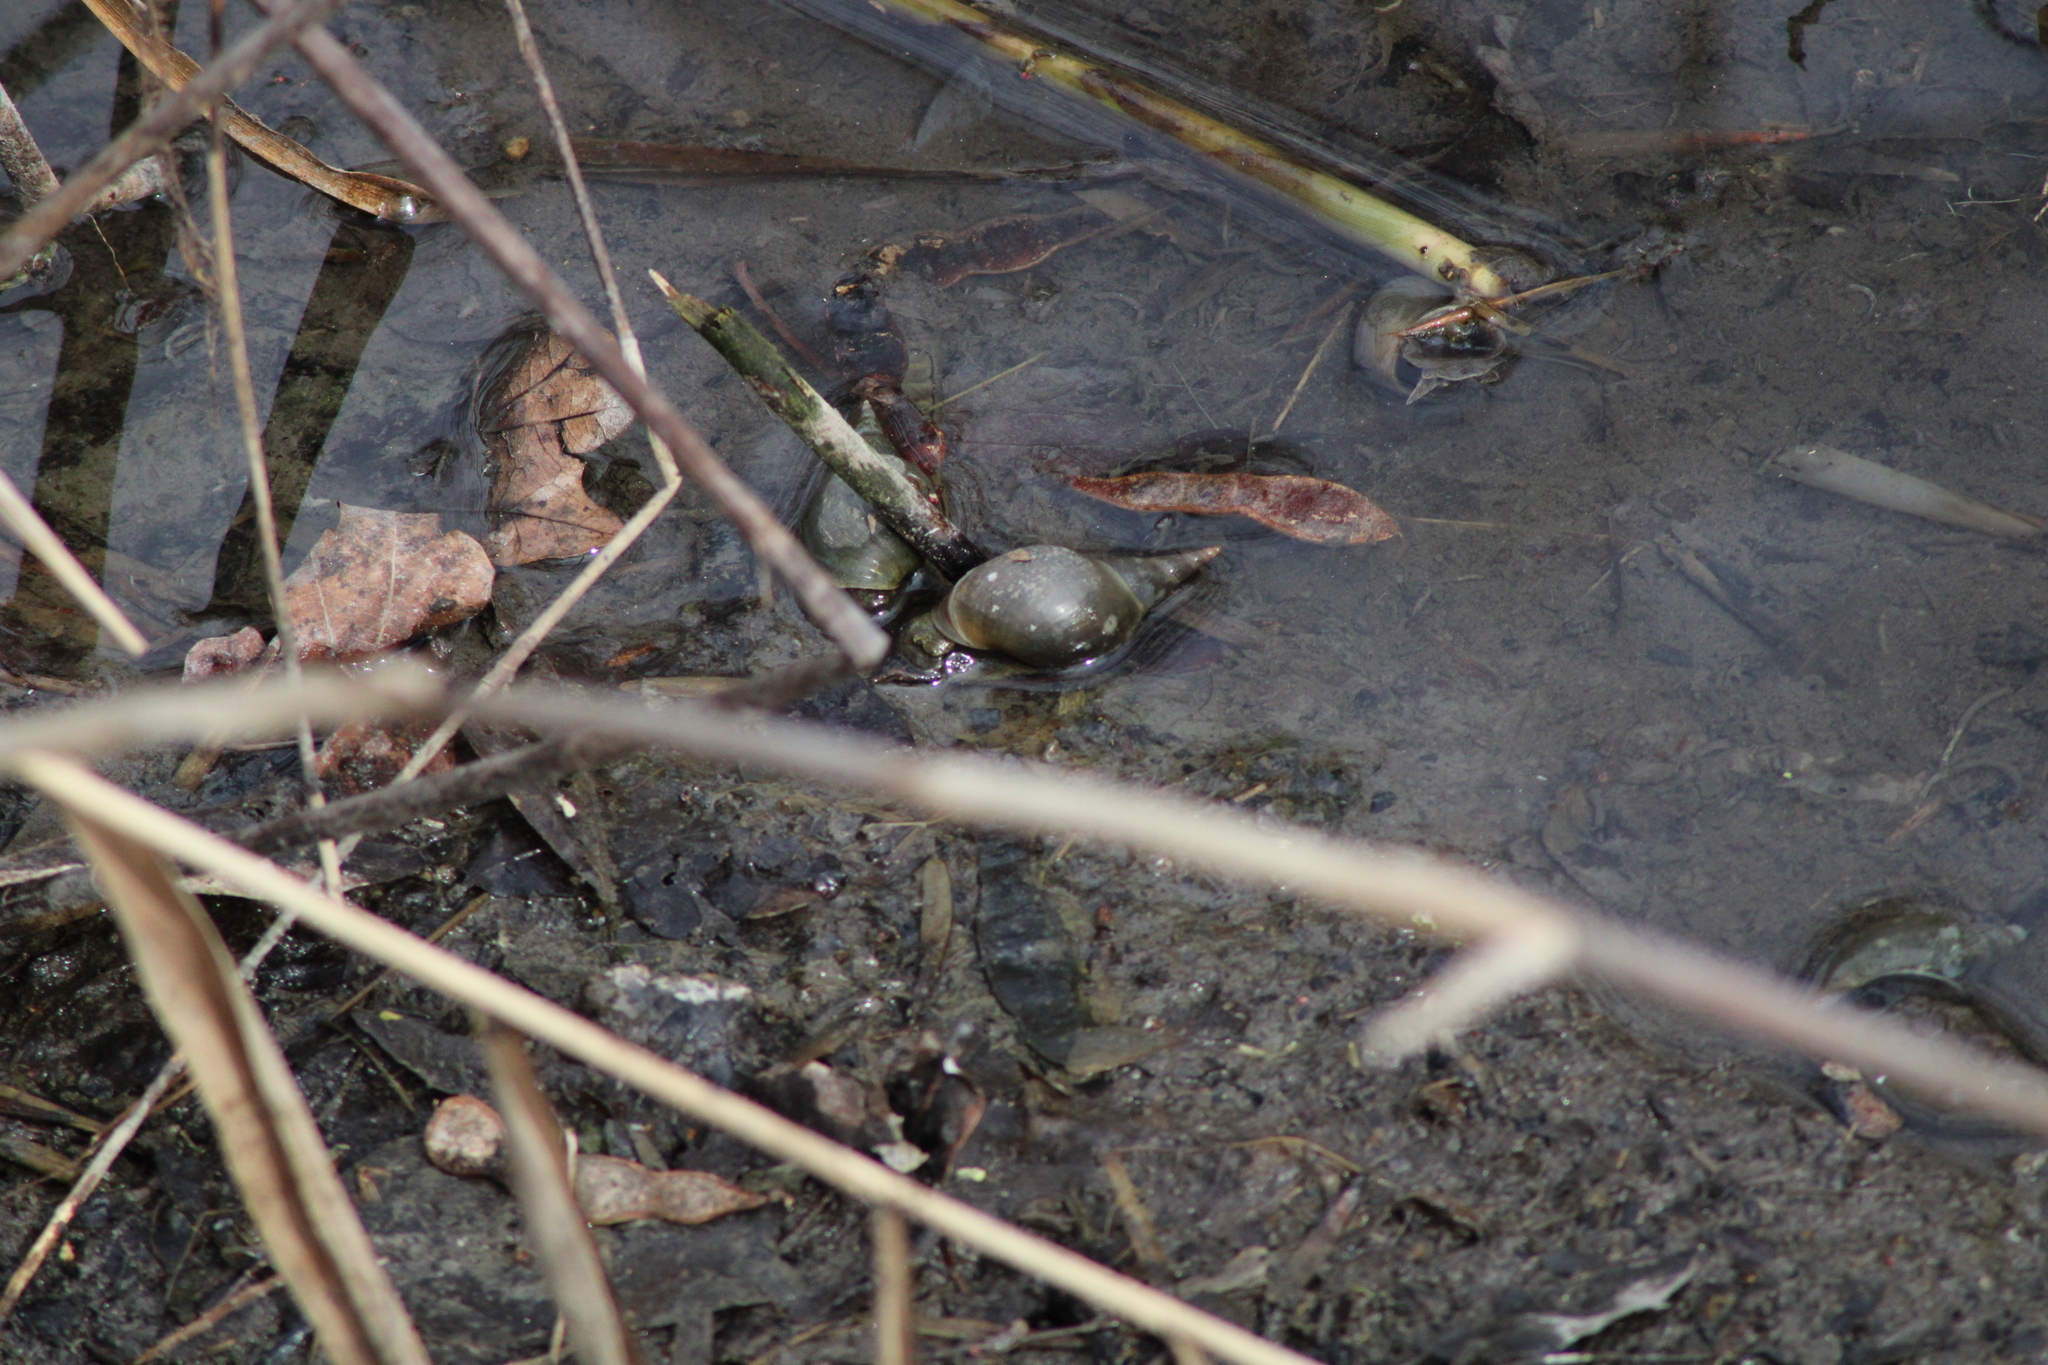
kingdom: Animalia
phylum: Mollusca
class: Gastropoda
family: Lymnaeidae
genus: Lymnaea
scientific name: Lymnaea stagnalis
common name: Great pond snail
